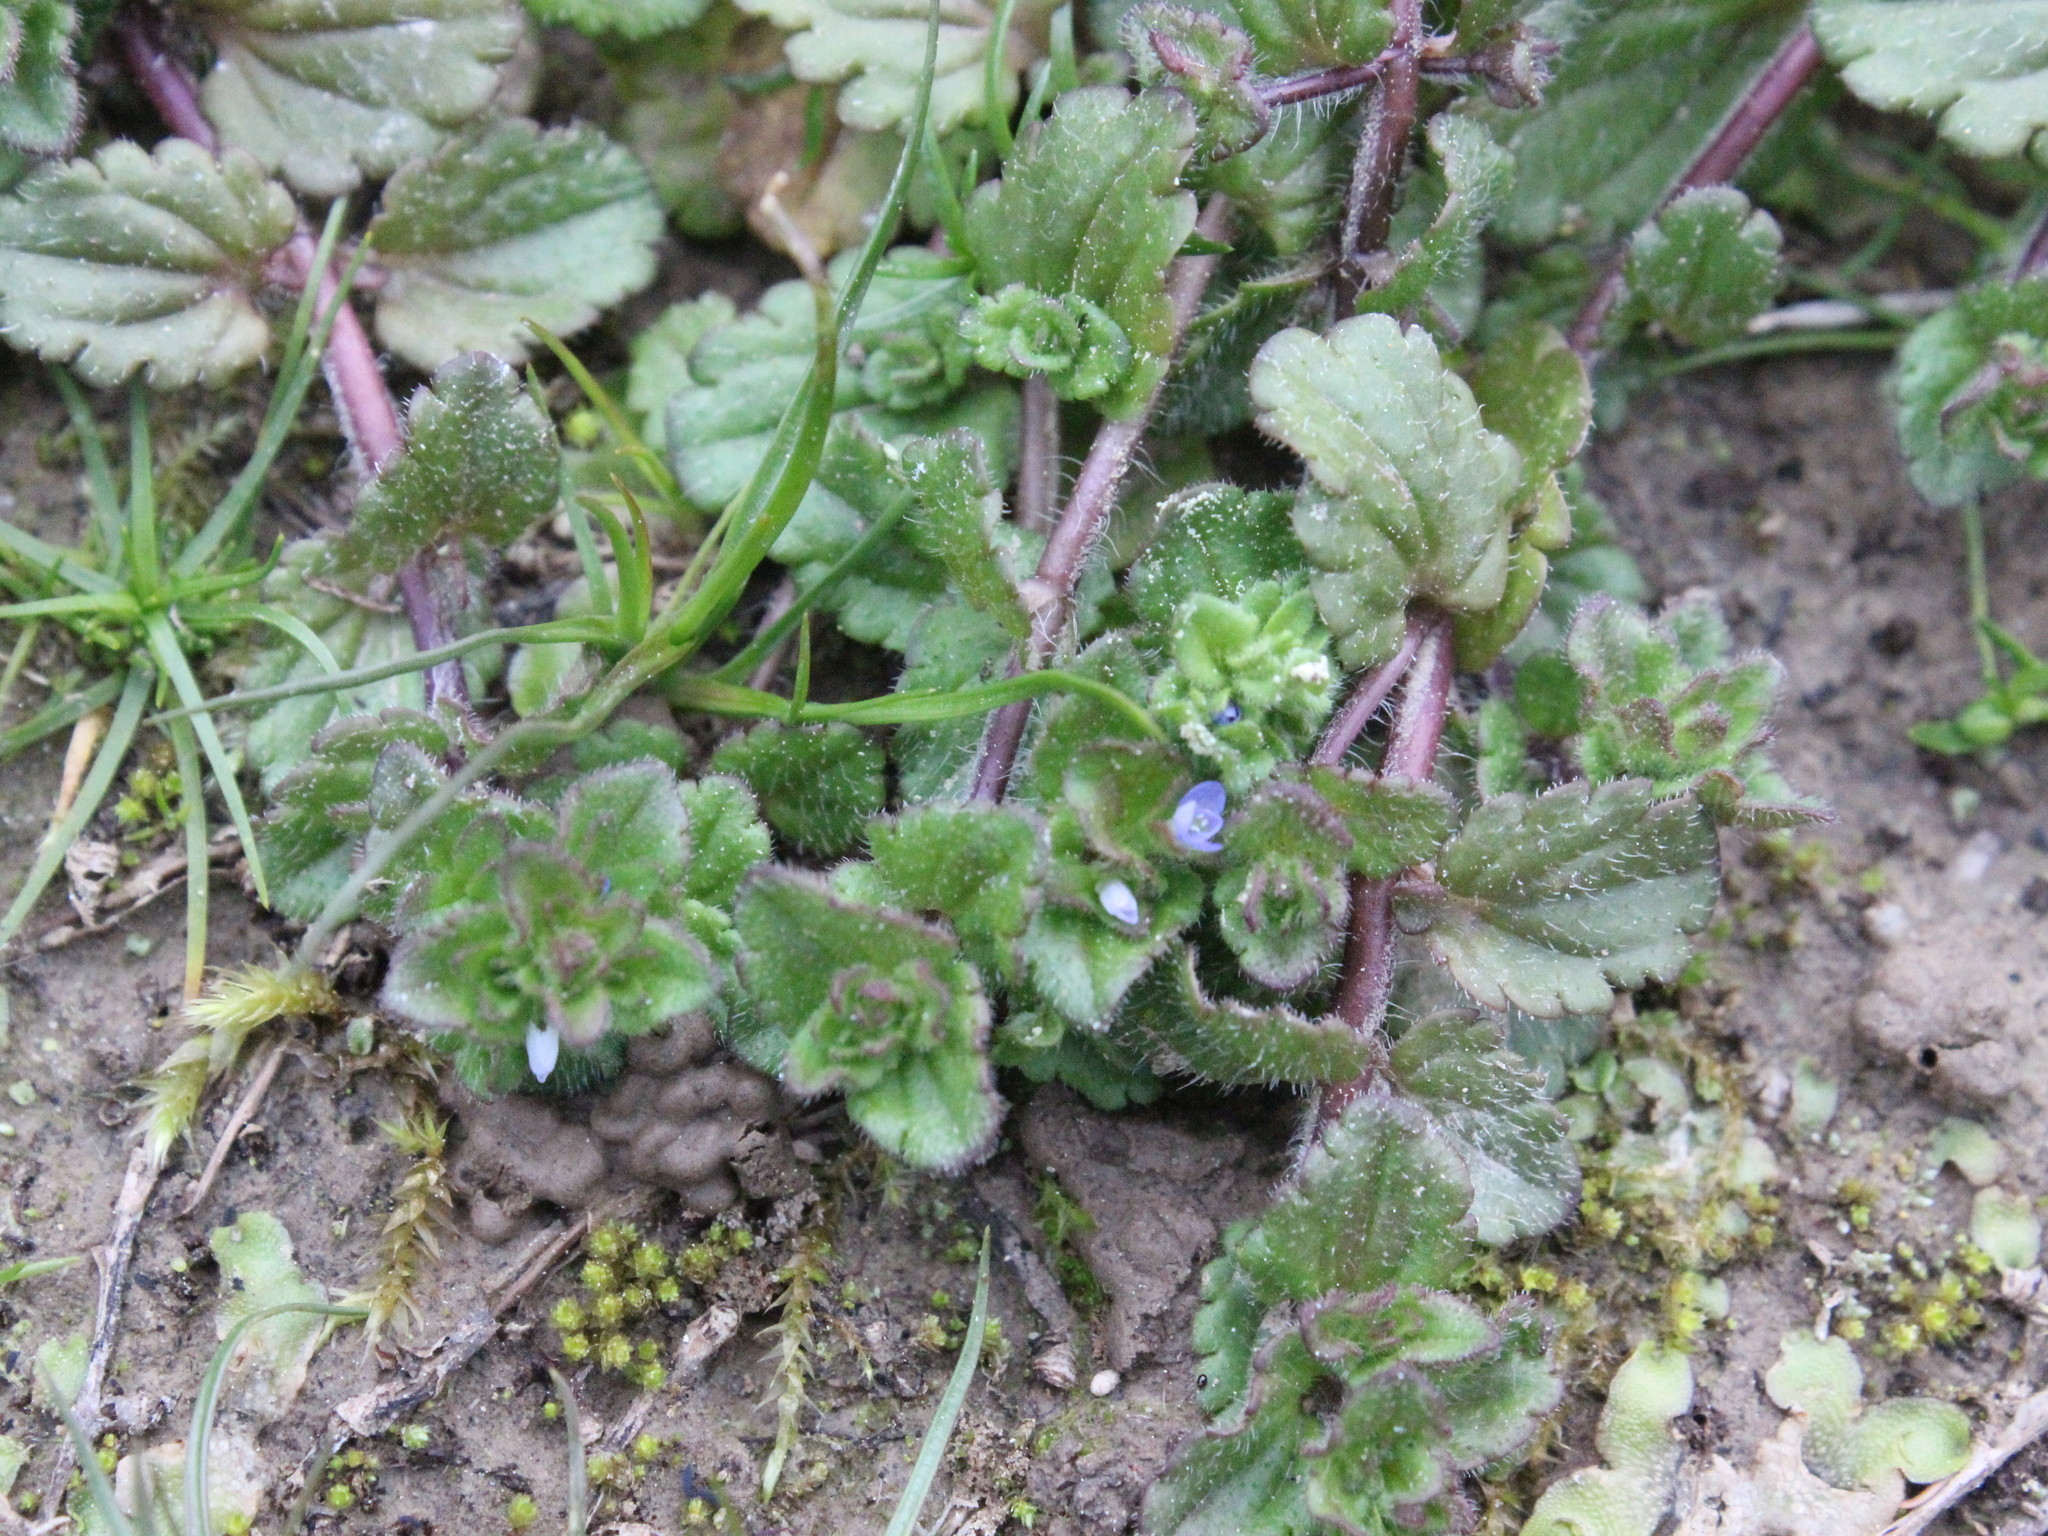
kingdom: Plantae
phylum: Tracheophyta
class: Magnoliopsida
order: Lamiales
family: Plantaginaceae
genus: Veronica
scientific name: Veronica arvensis
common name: Corn speedwell
